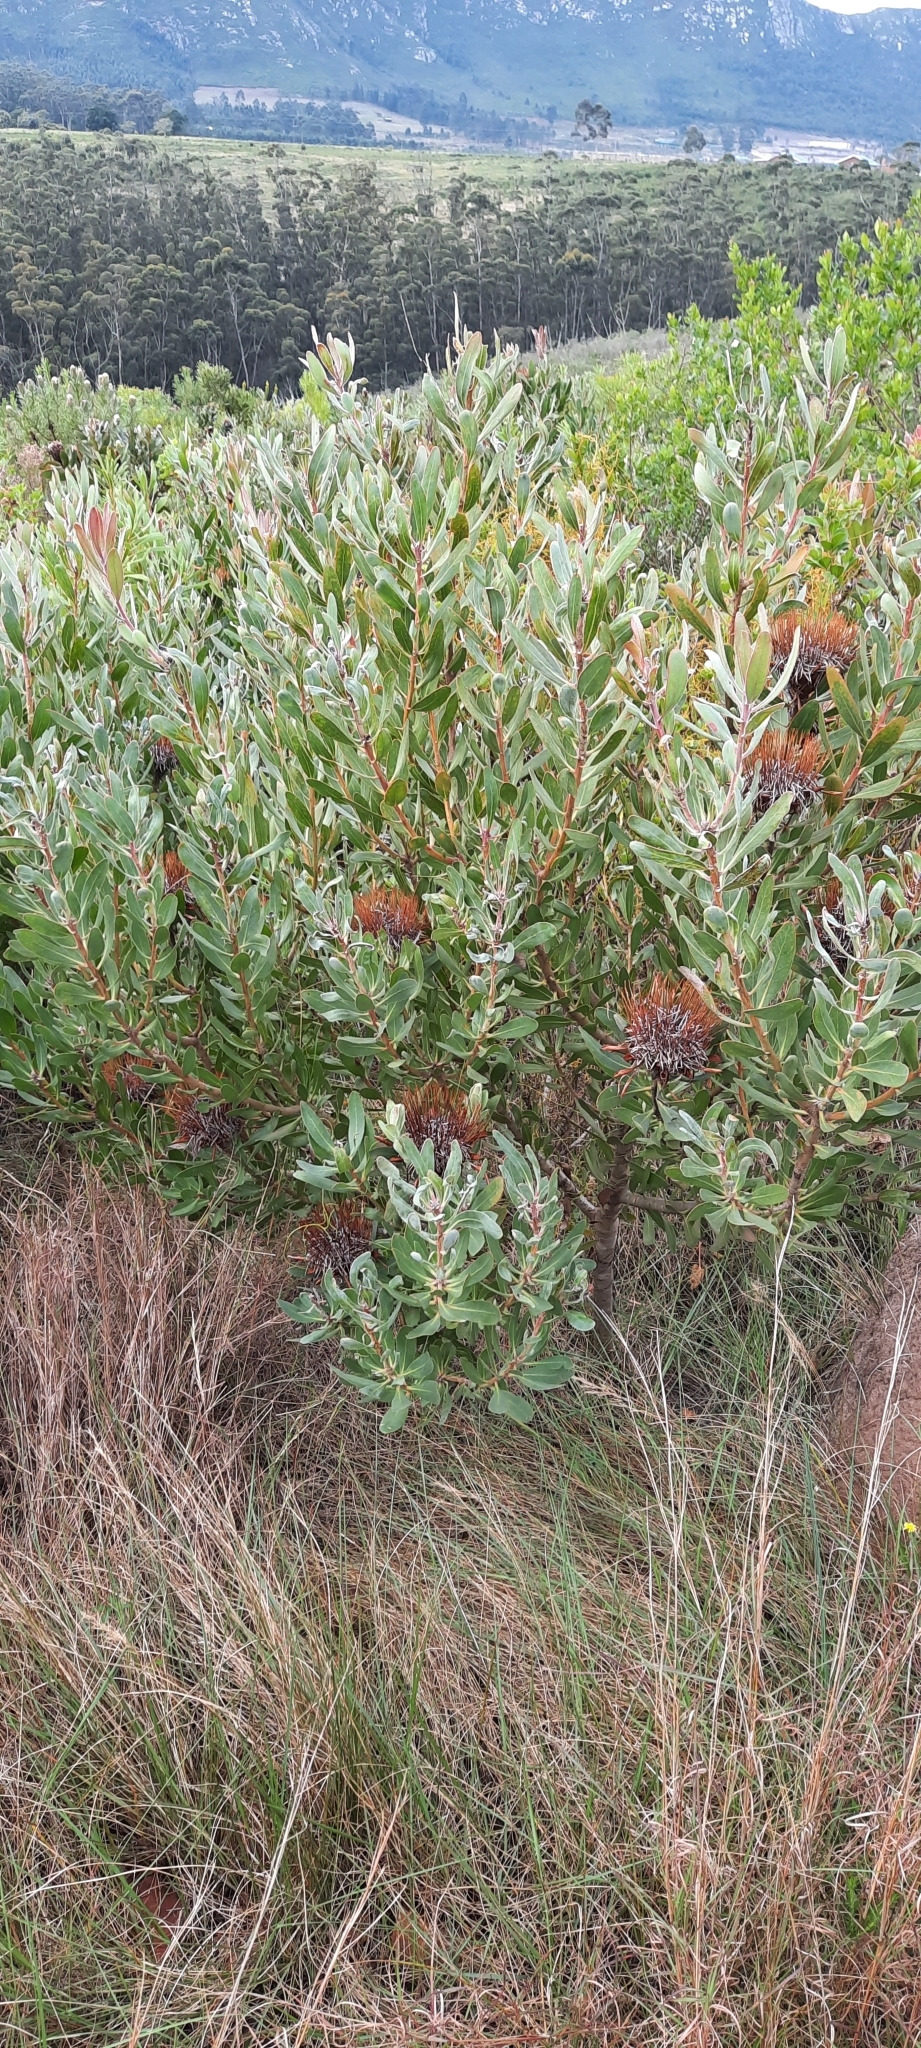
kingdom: Plantae
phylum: Tracheophyta
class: Magnoliopsida
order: Proteales
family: Proteaceae
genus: Protea
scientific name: Protea susannae
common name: Foetid-leaf sugarbush
